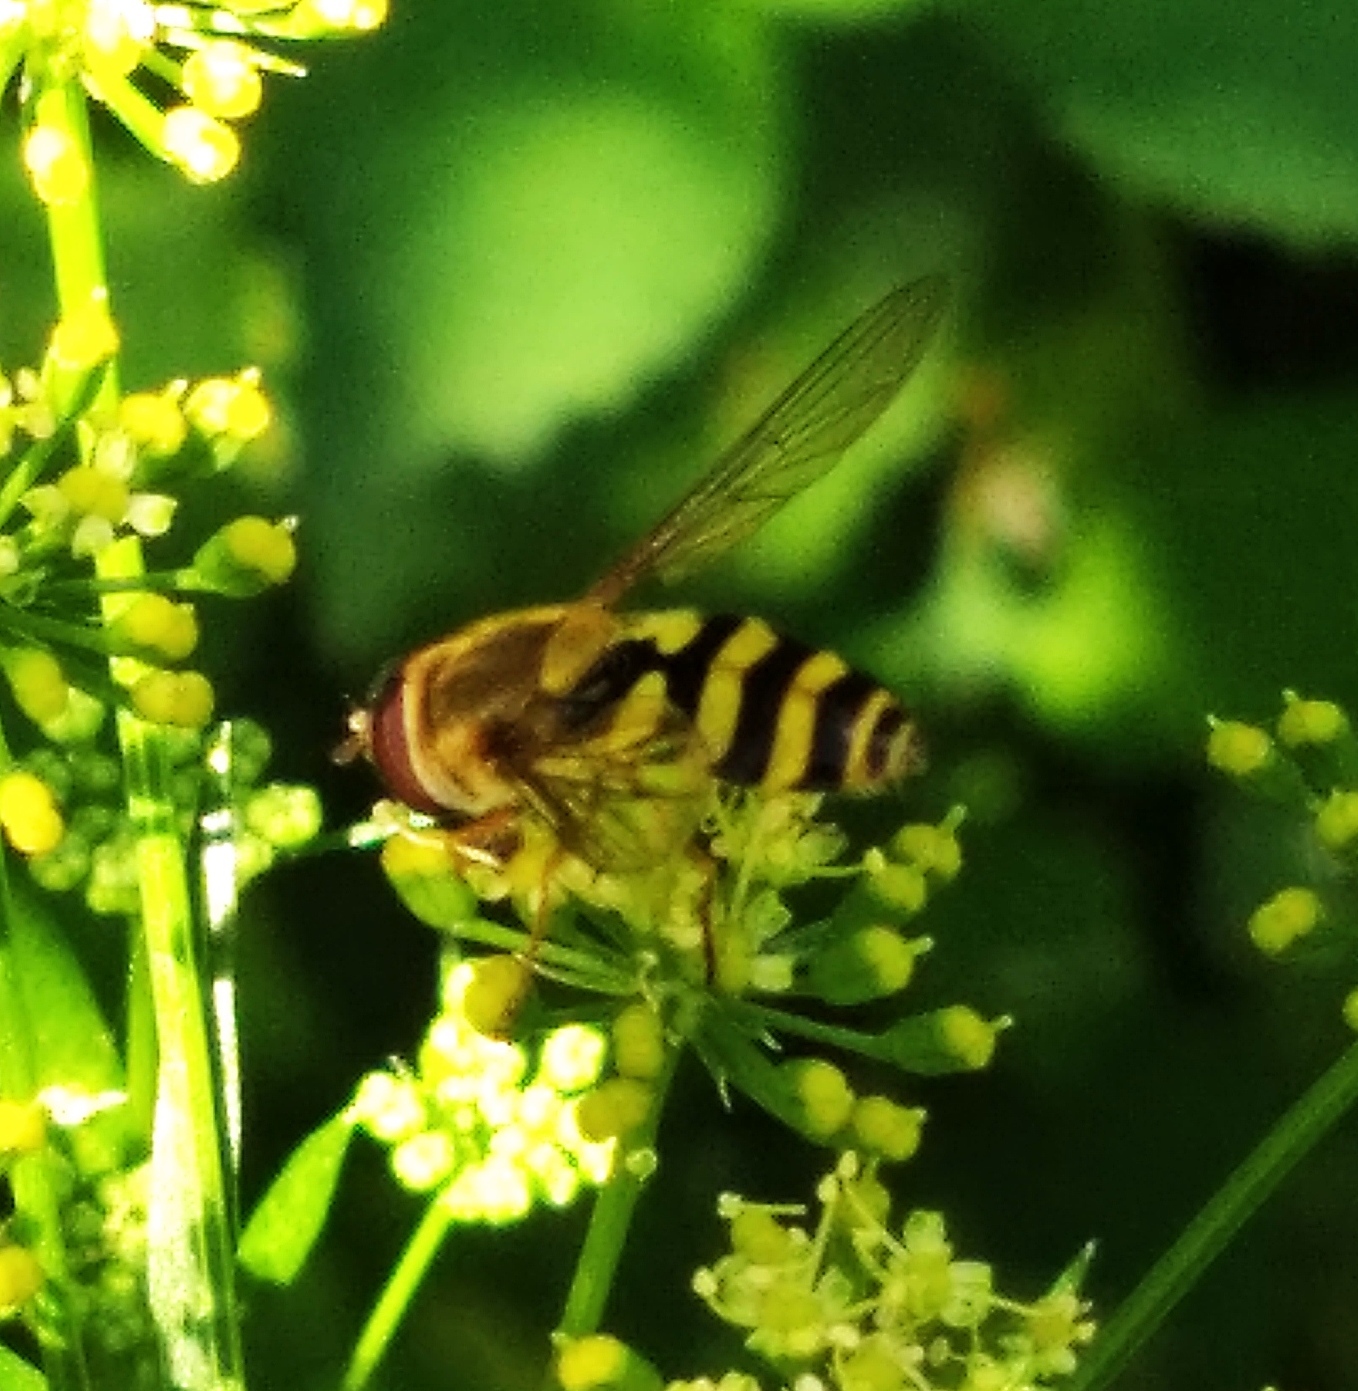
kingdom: Animalia
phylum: Arthropoda
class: Insecta
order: Diptera
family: Syrphidae
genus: Syrphus
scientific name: Syrphus
